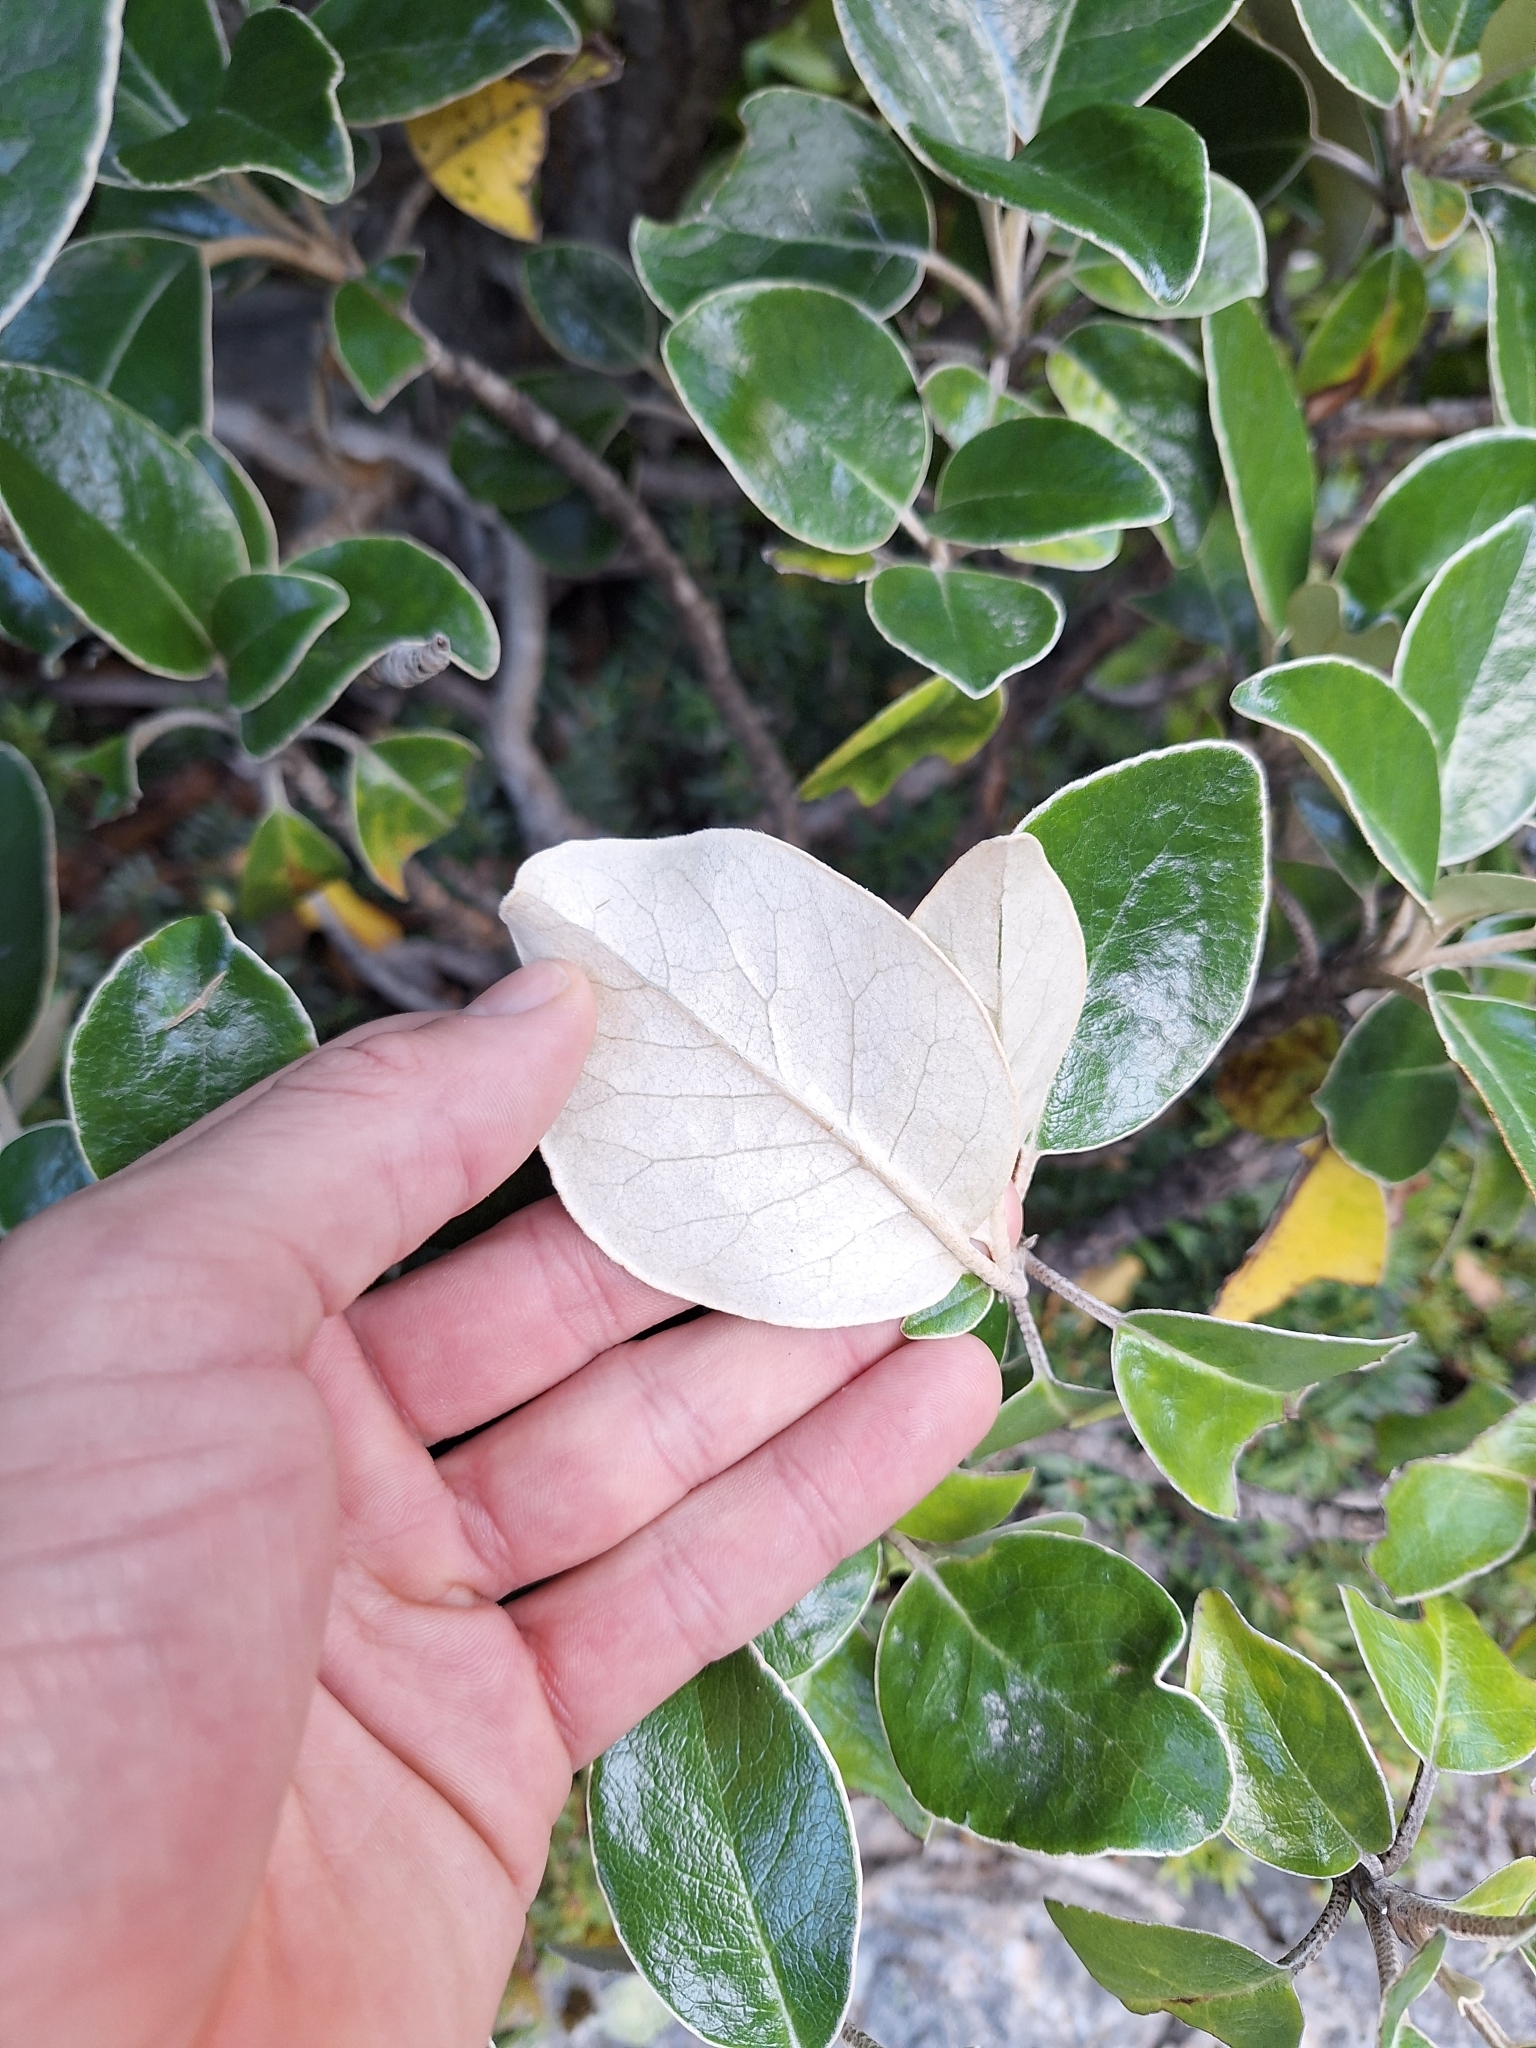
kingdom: Plantae
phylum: Tracheophyta
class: Magnoliopsida
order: Asterales
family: Asteraceae
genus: Brachyglottis
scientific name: Brachyglottis elaeagnifolia
